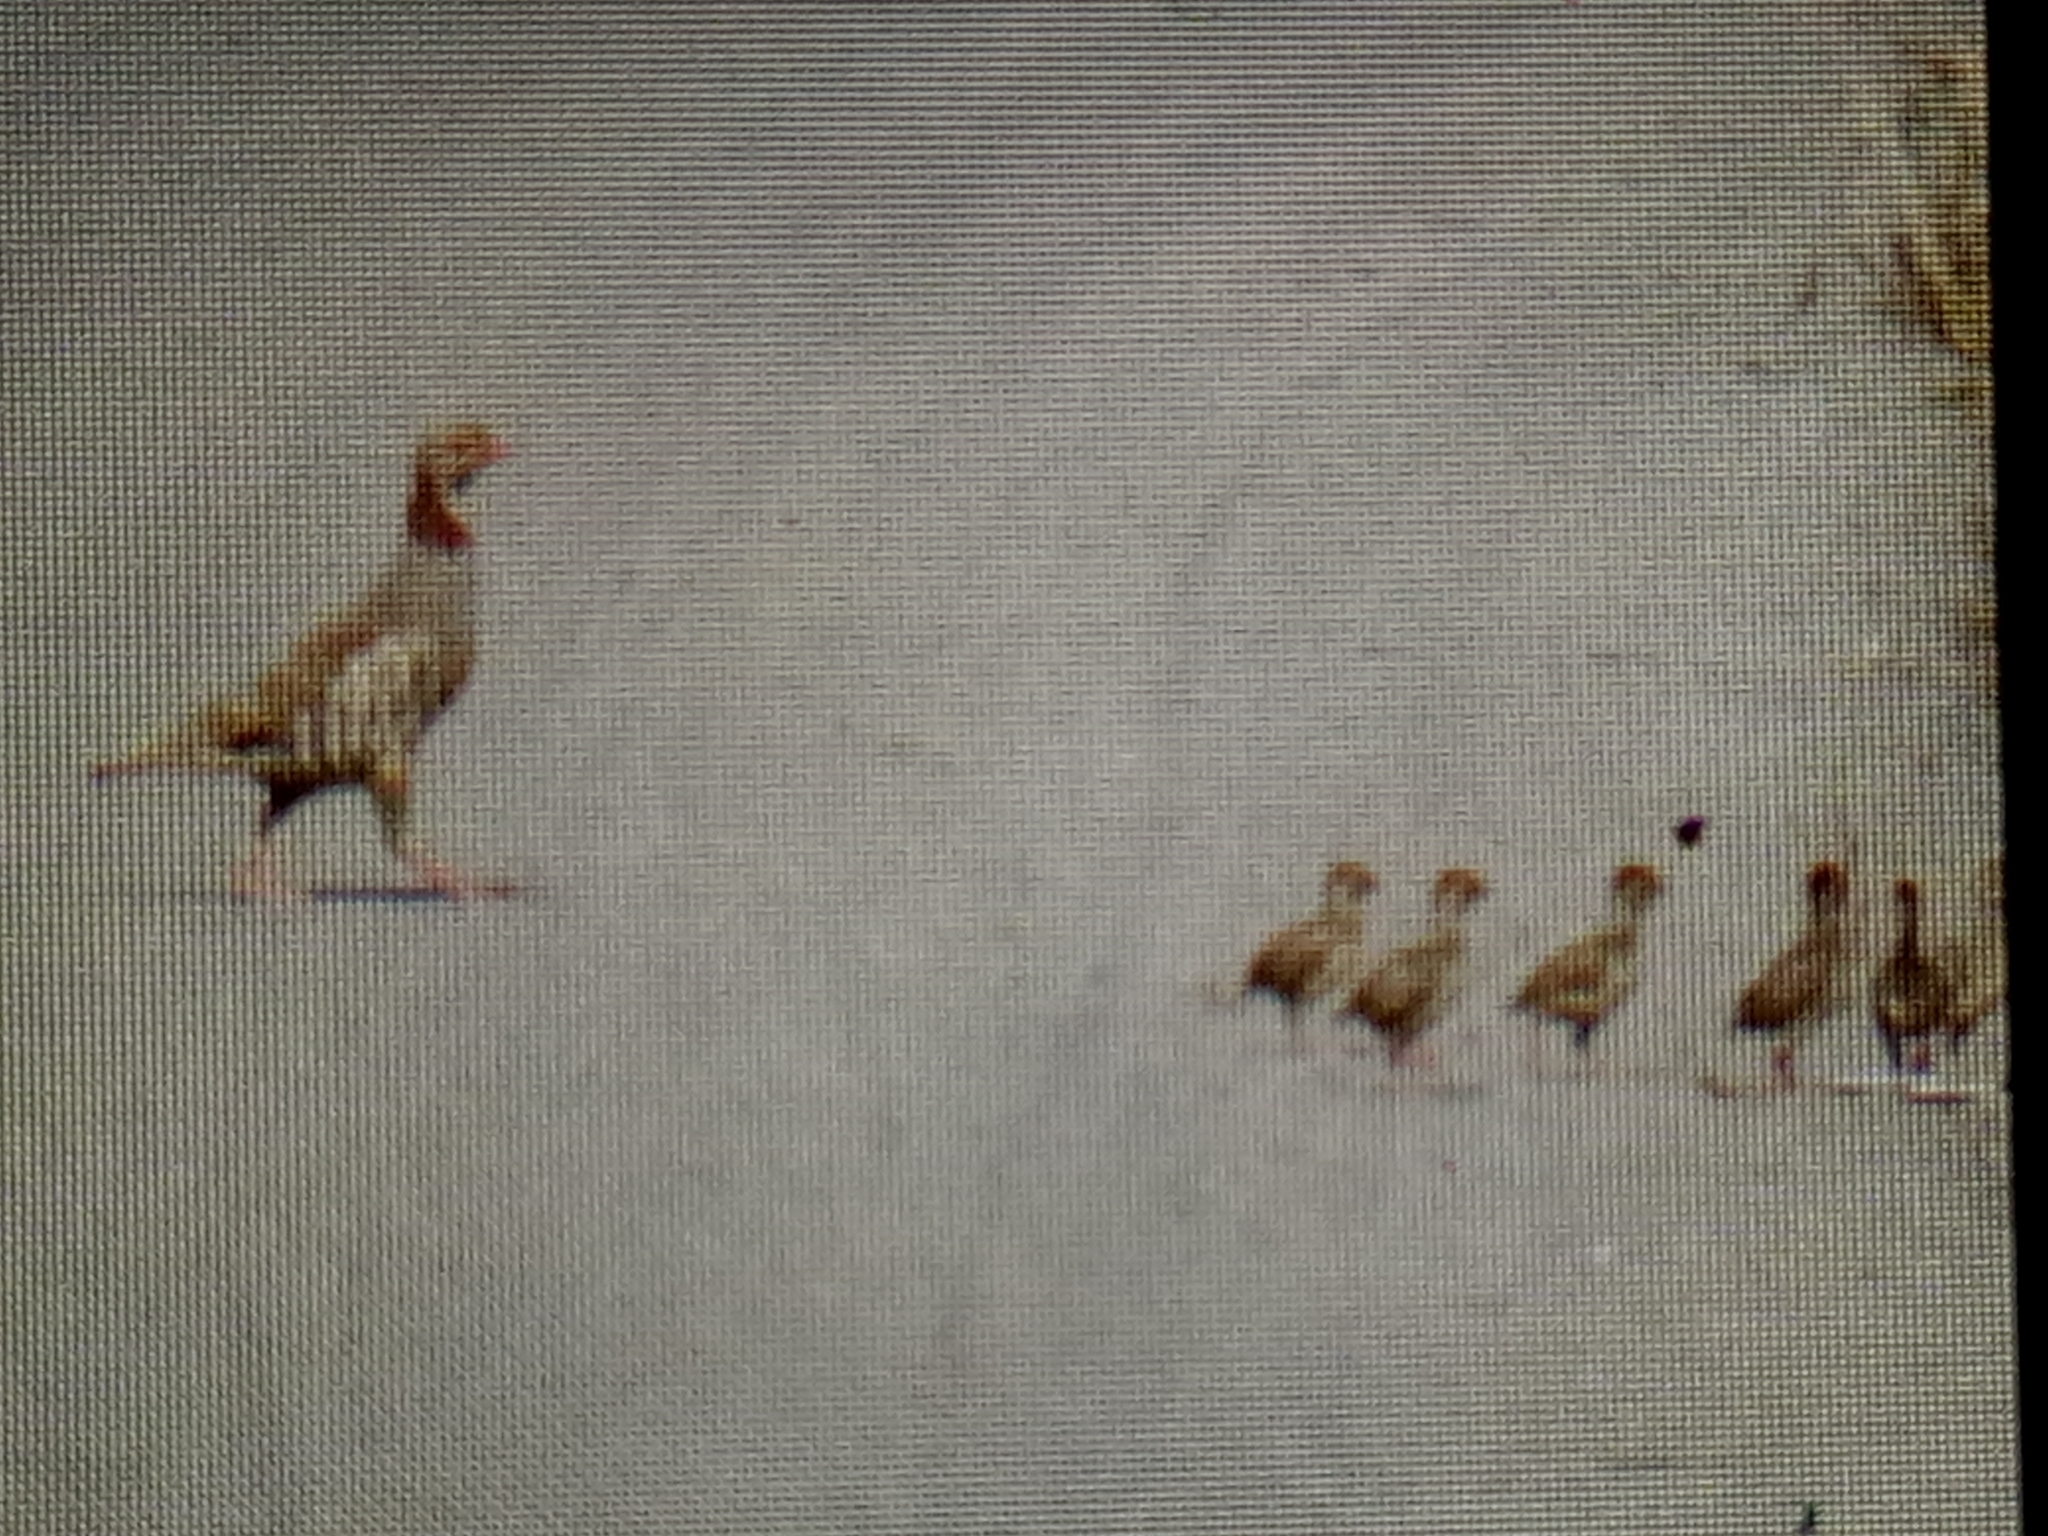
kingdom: Animalia
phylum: Chordata
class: Aves
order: Galliformes
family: Phasianidae
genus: Alectoris
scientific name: Alectoris barbara
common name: Barbary partridge
